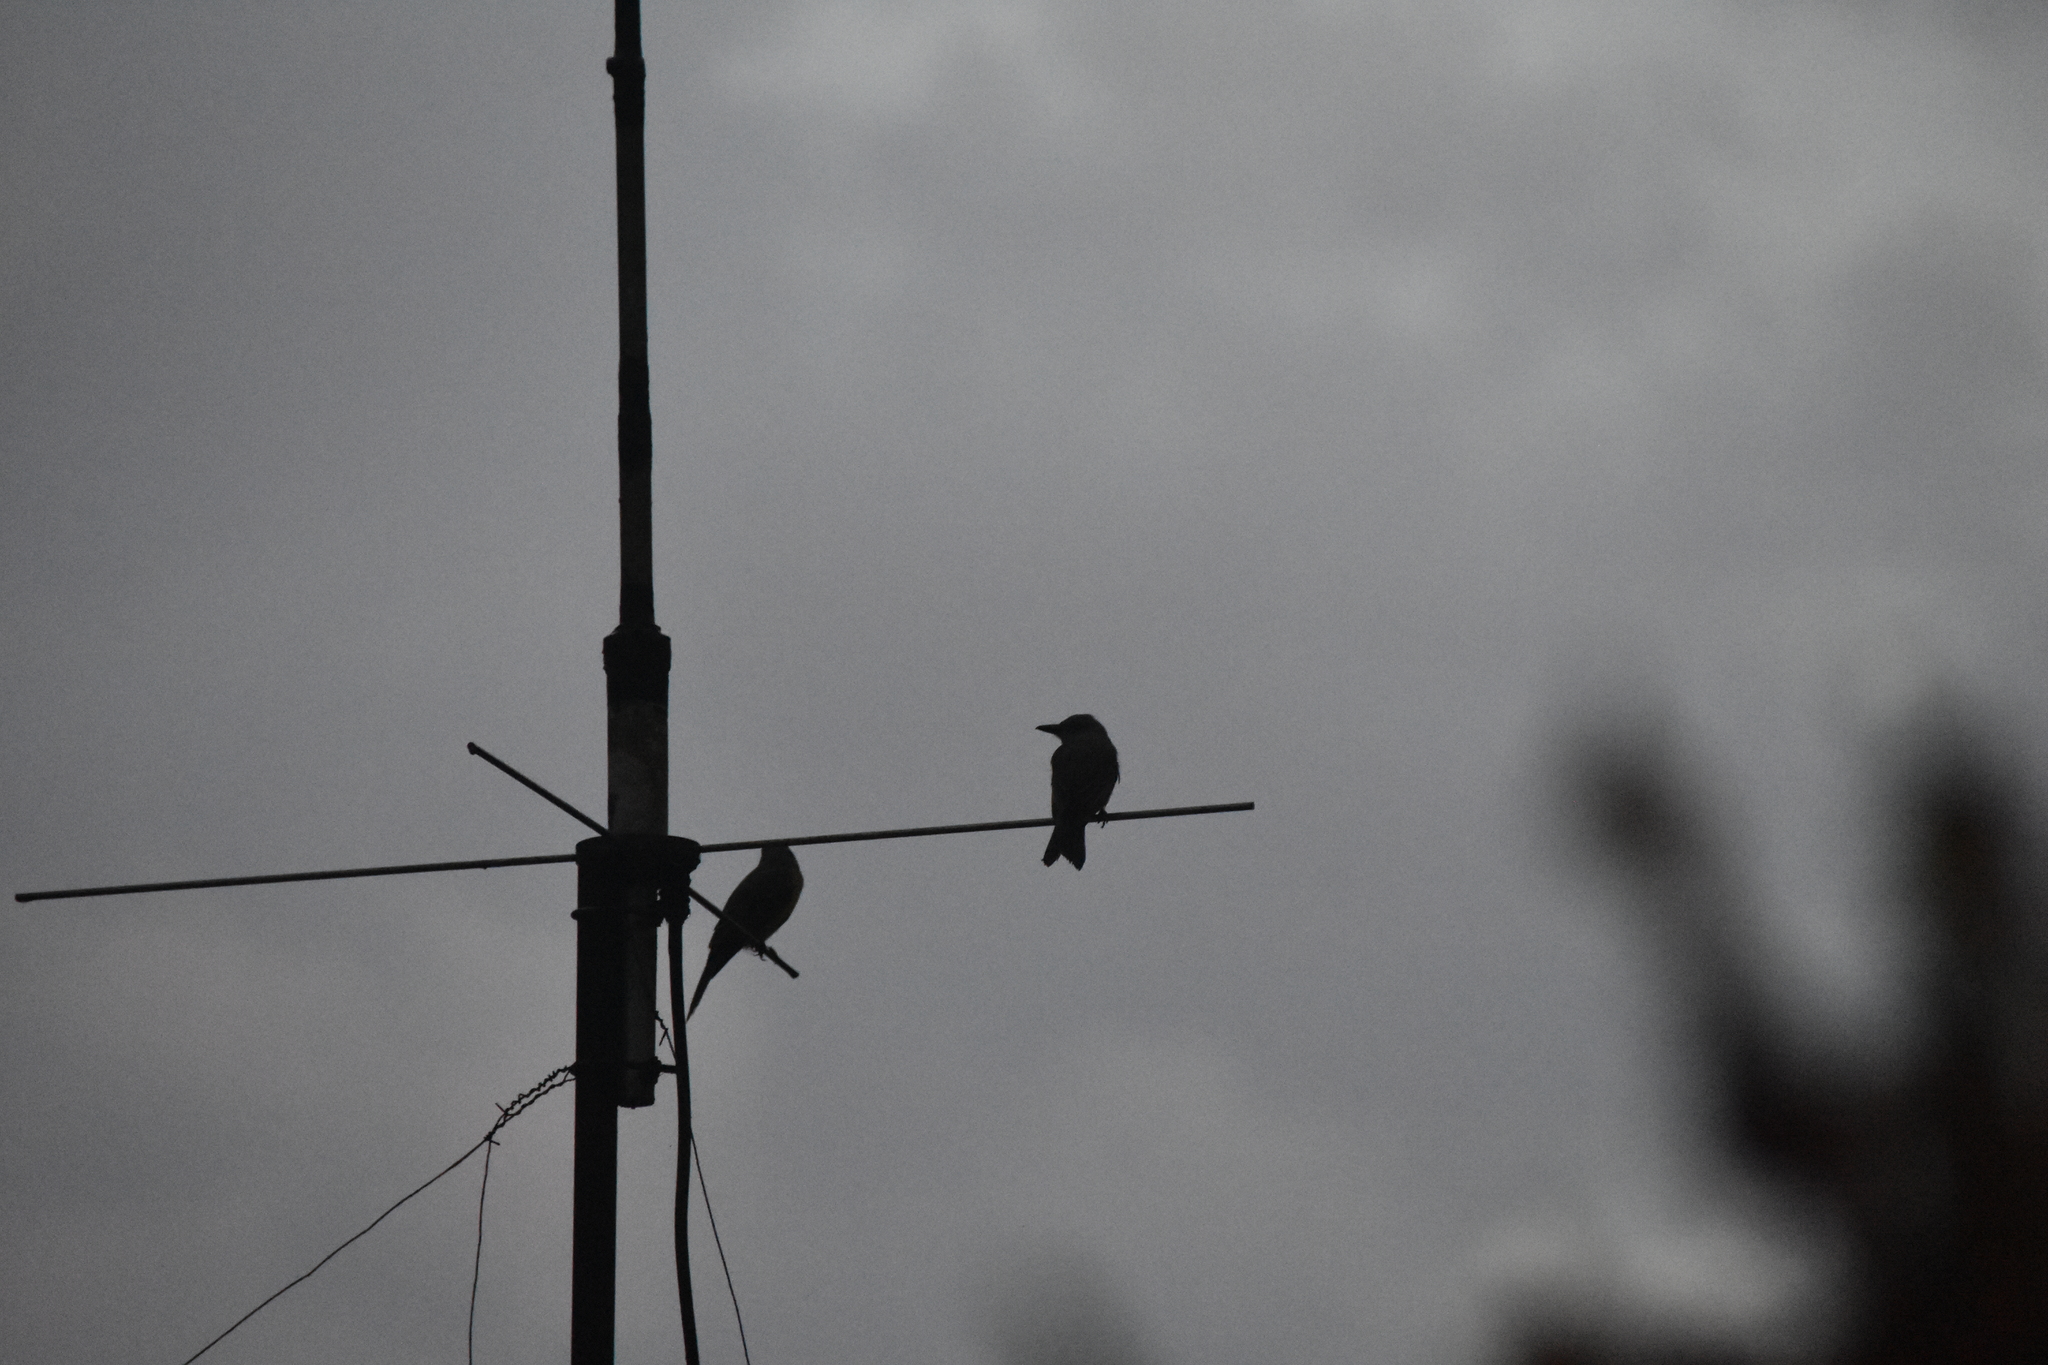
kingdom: Animalia
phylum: Chordata
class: Aves
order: Passeriformes
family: Tyrannidae
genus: Tyrannus
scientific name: Tyrannus melancholicus
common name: Tropical kingbird
